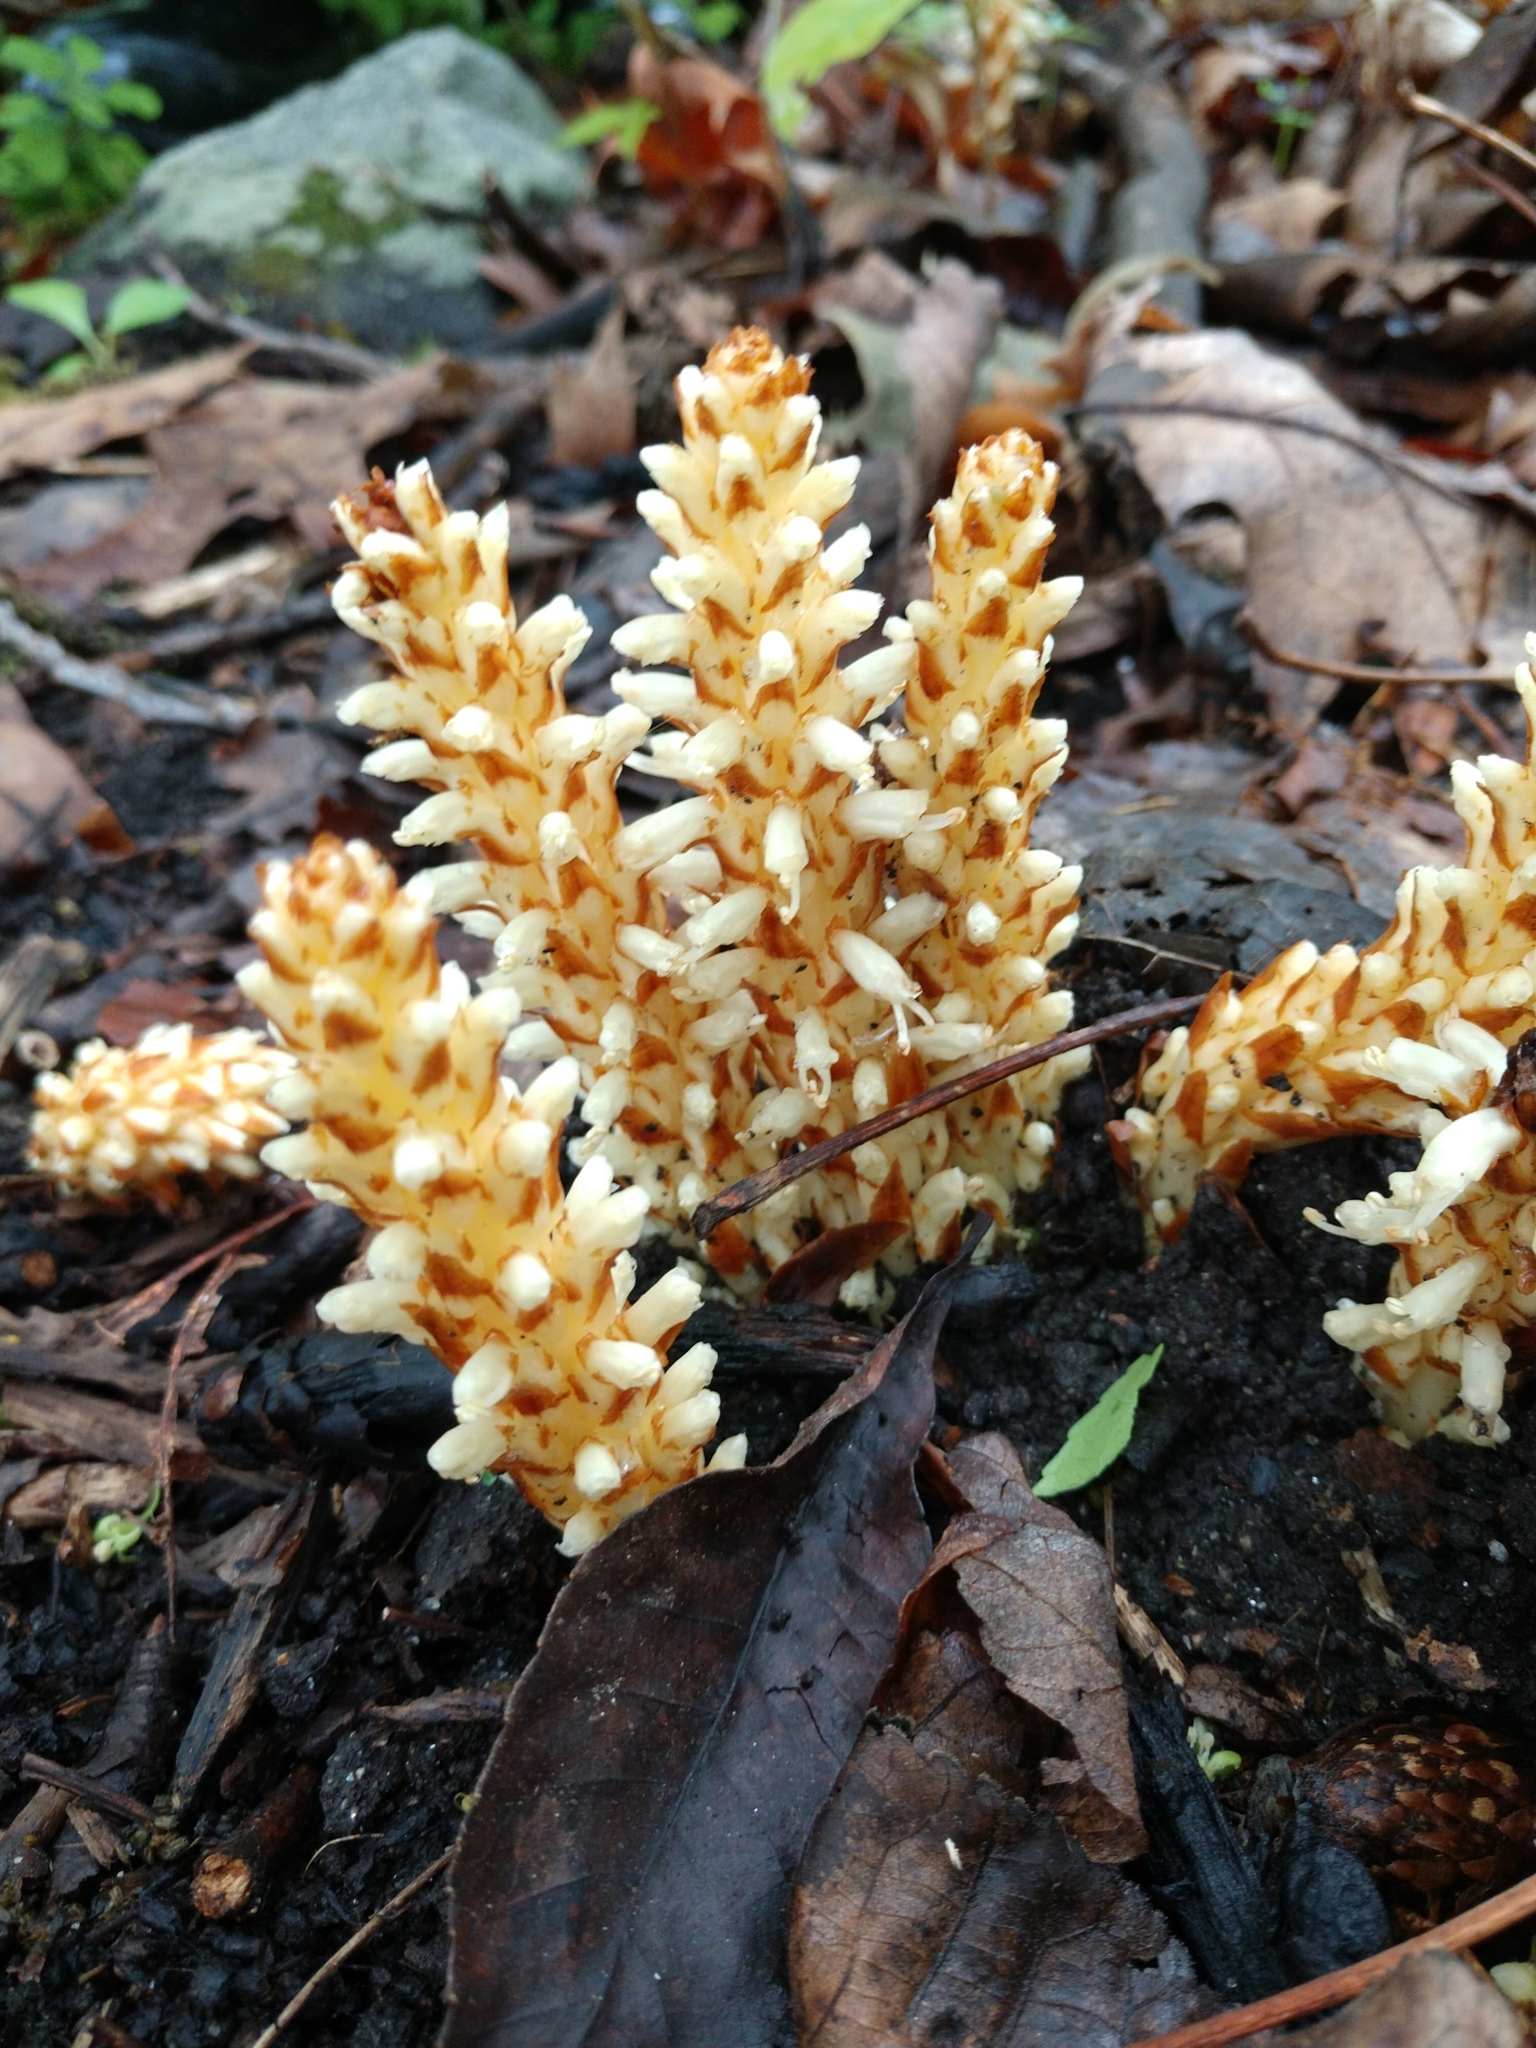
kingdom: Plantae
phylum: Tracheophyta
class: Magnoliopsida
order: Lamiales
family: Orobanchaceae
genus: Conopholis
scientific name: Conopholis americana
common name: American cancer-root
